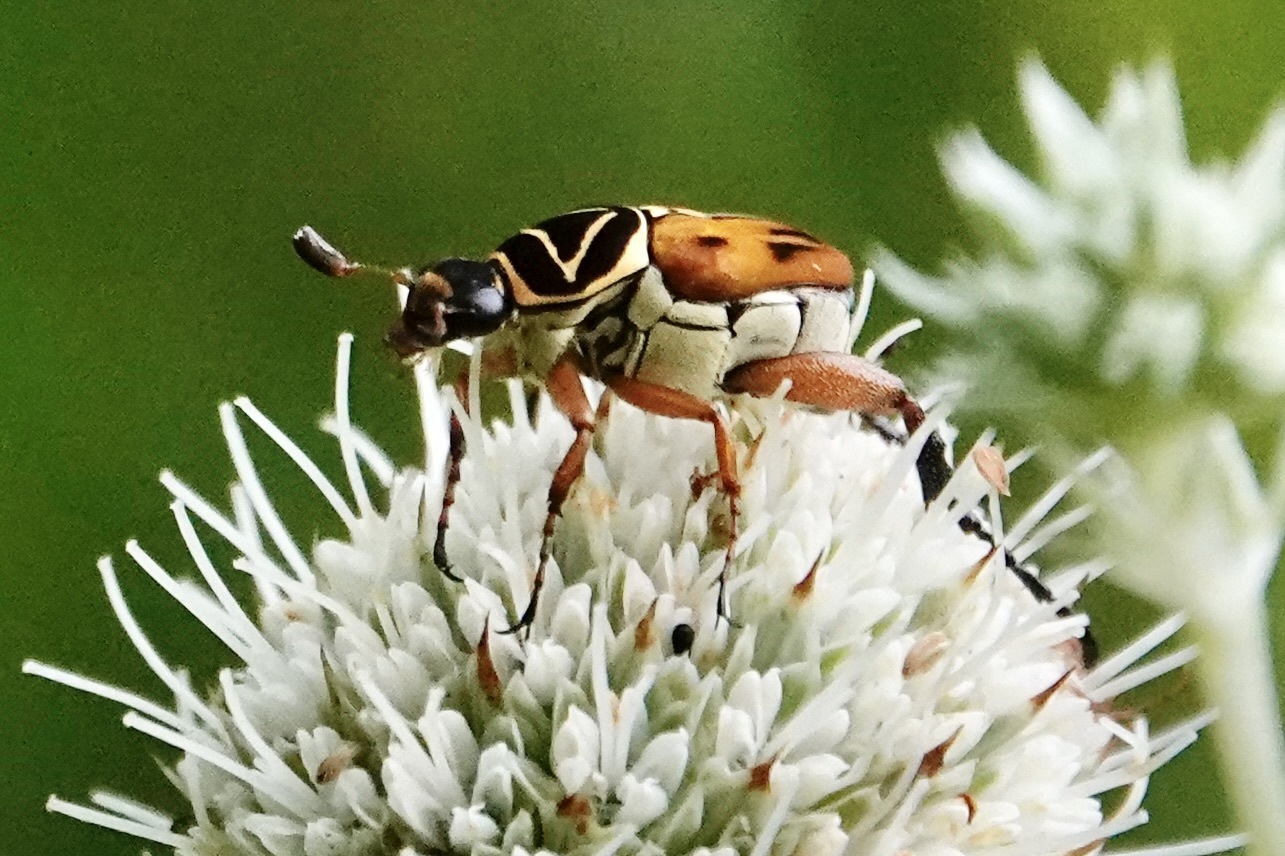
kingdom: Animalia
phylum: Arthropoda
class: Insecta
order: Coleoptera
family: Scarabaeidae
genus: Trigonopeltastes
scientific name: Trigonopeltastes delta
